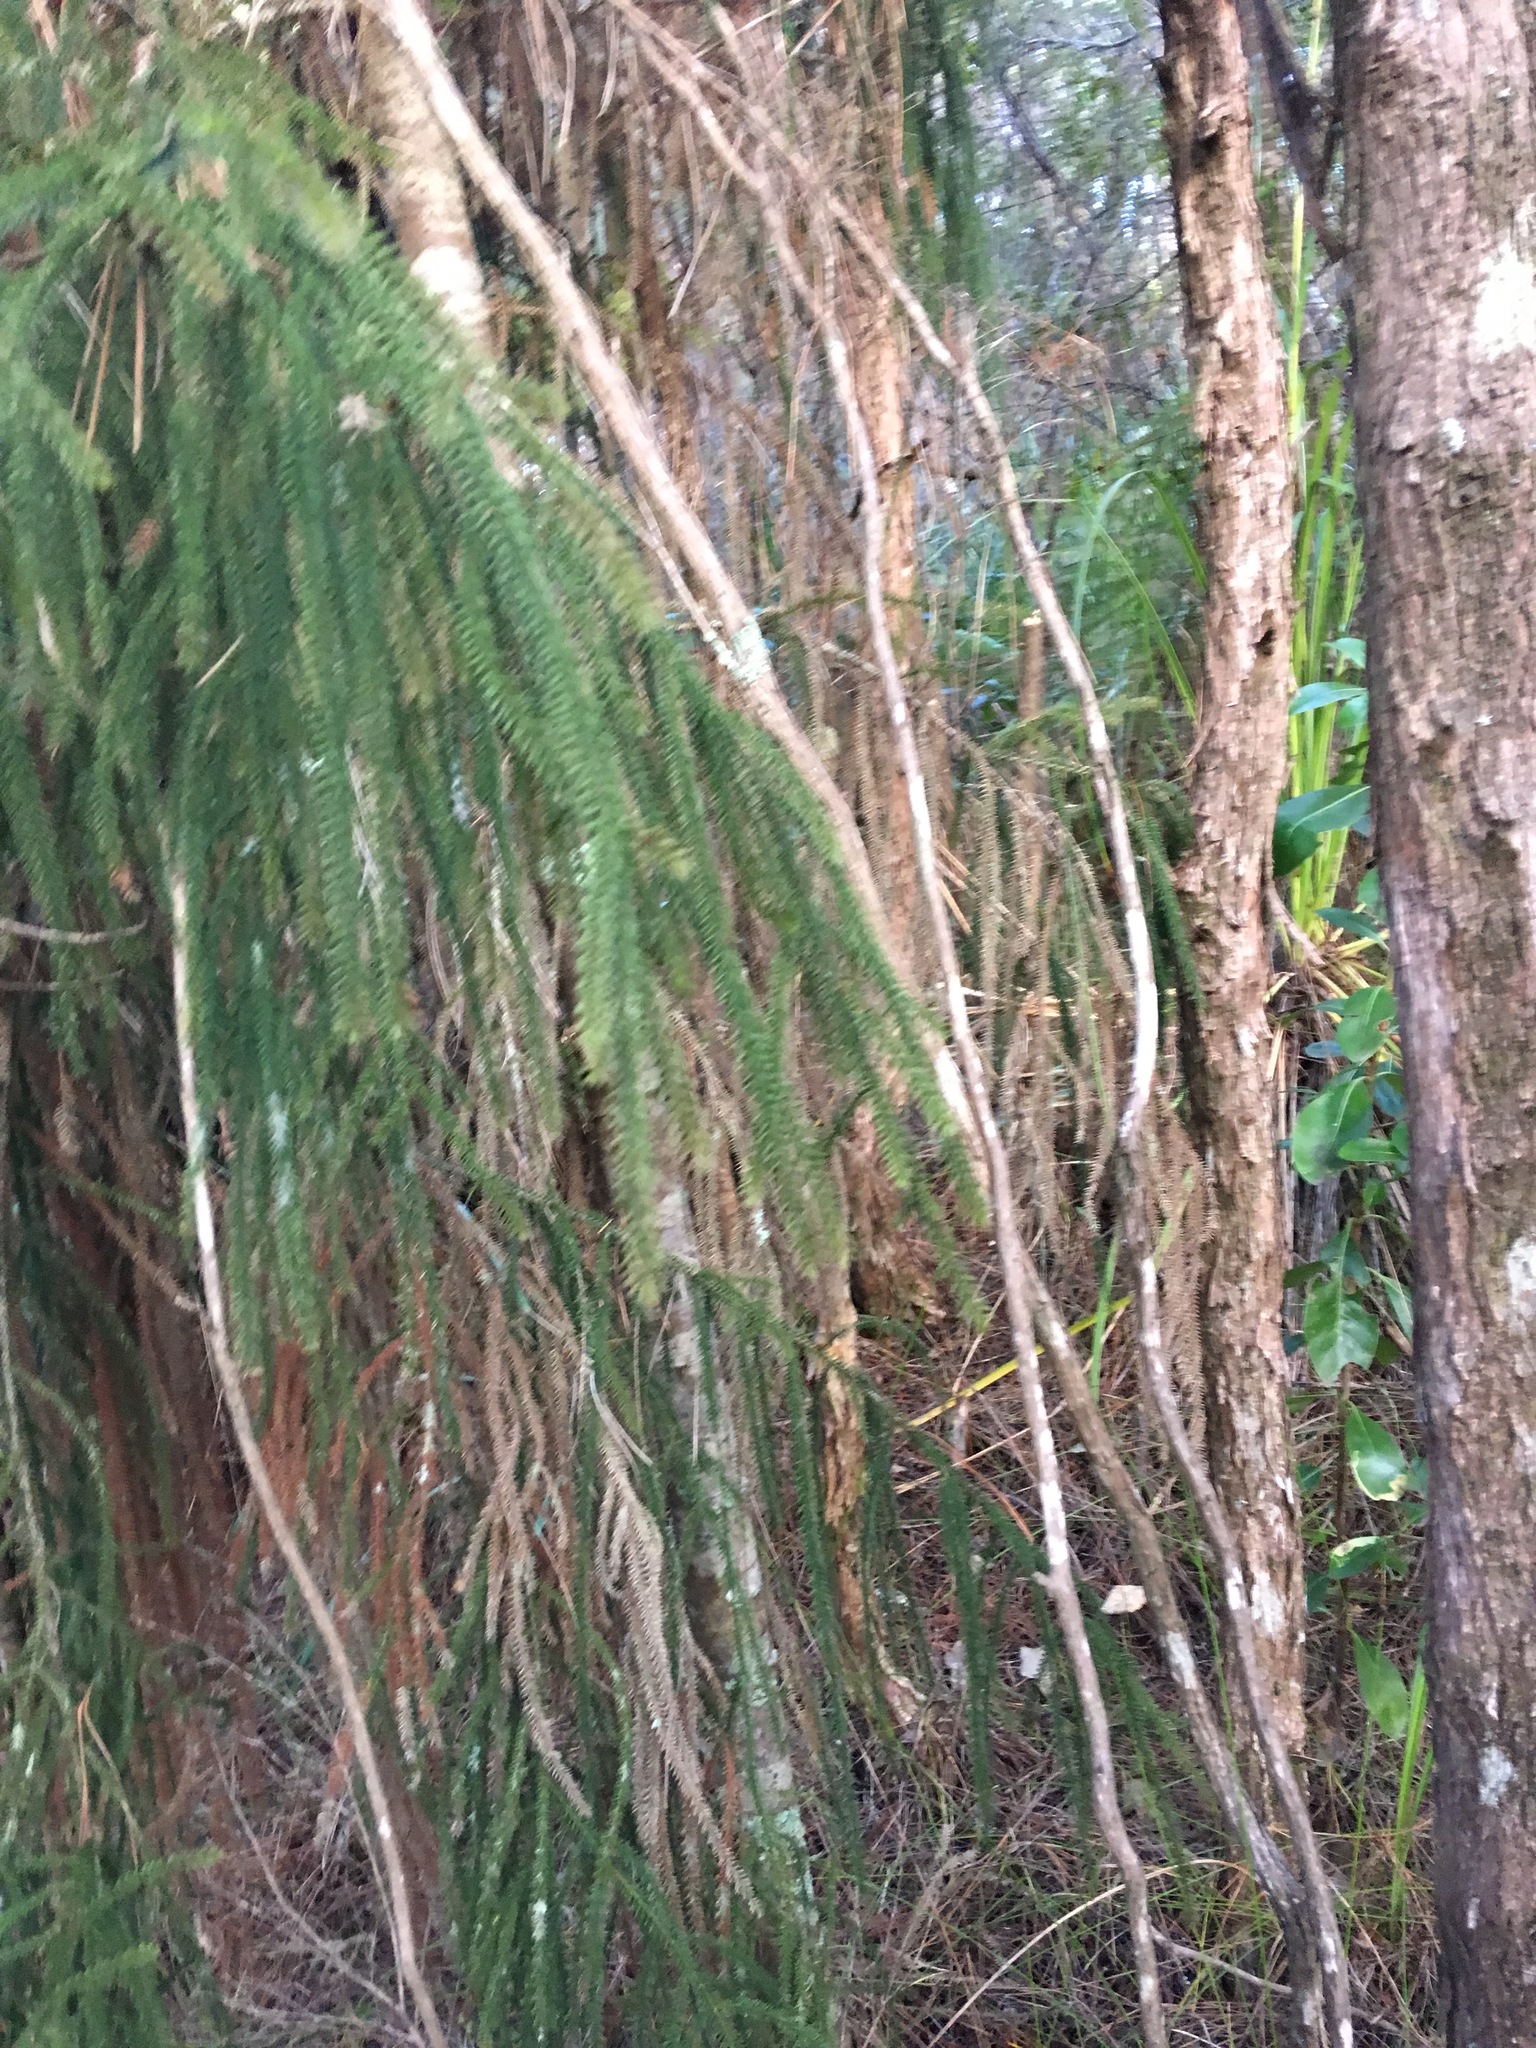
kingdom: Plantae
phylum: Tracheophyta
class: Pinopsida
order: Pinales
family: Podocarpaceae
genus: Dacrydium
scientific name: Dacrydium cupressinum
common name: Red pine
